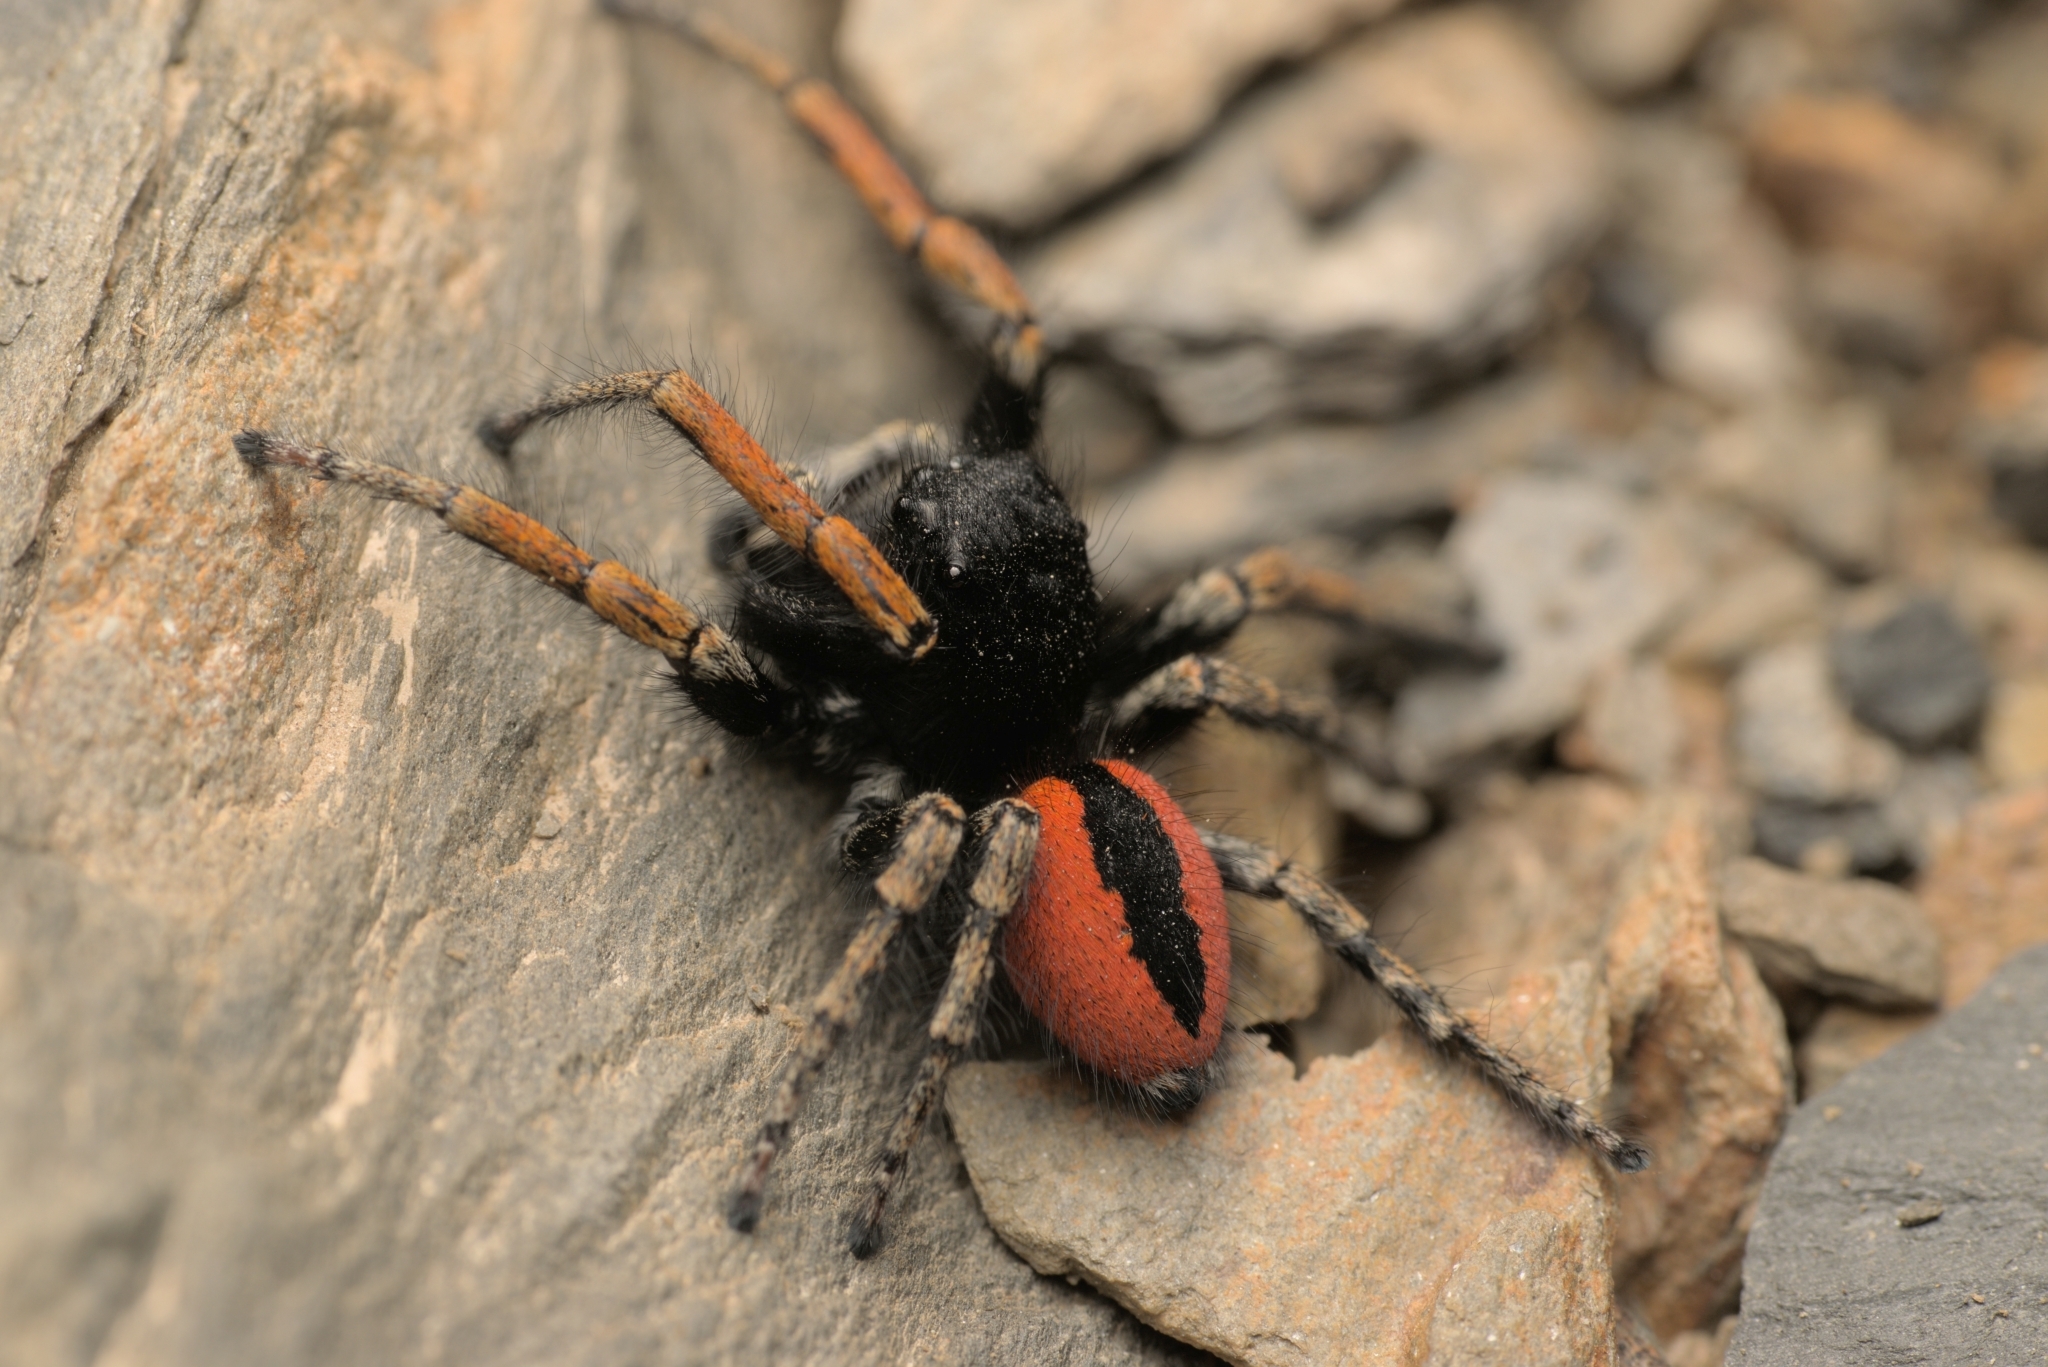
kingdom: Animalia
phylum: Arthropoda
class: Arachnida
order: Araneae
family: Salticidae
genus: Philaeus
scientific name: Philaeus chrysops
